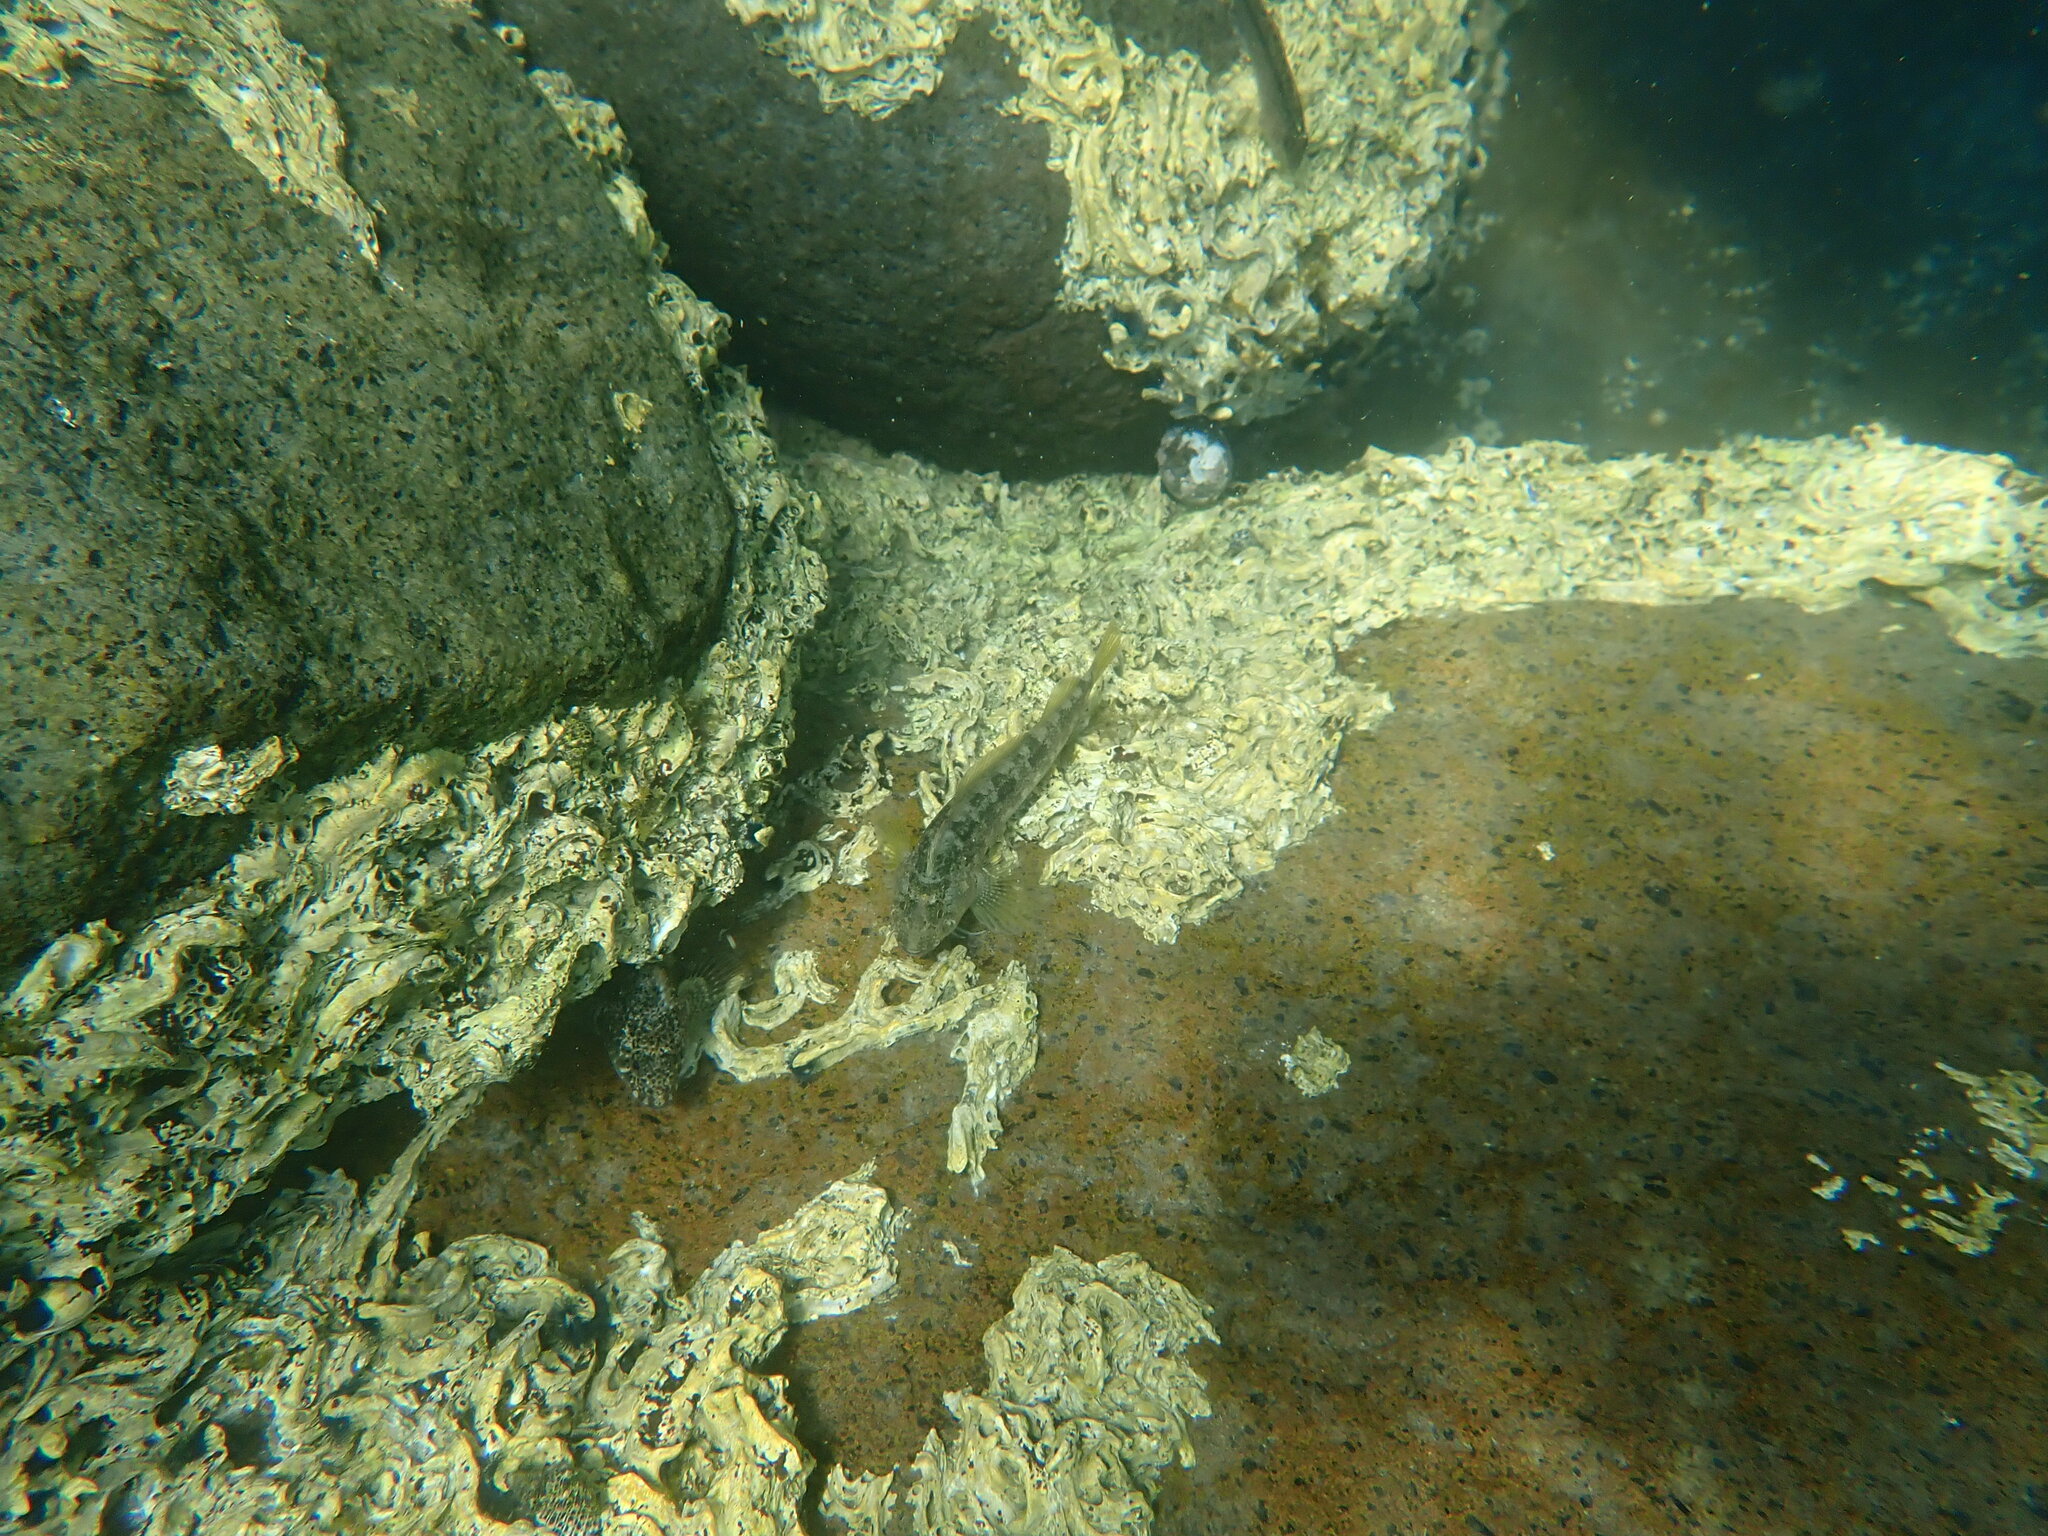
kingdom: Animalia
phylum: Chordata
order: Perciformes
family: Tripterygiidae
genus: Forsterygion
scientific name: Forsterygion capito
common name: Spotted robust triplefin
